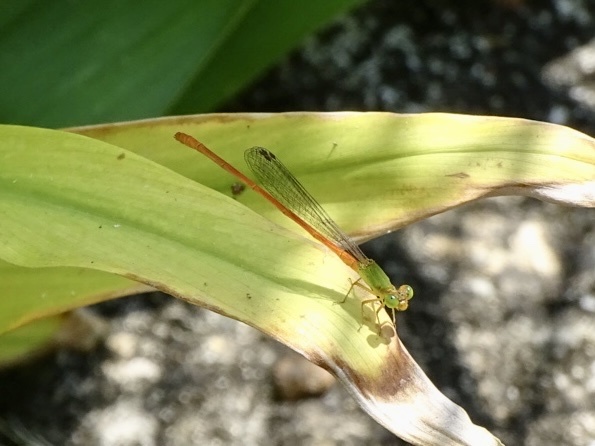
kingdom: Animalia
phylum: Arthropoda
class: Insecta
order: Odonata
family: Coenagrionidae
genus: Ceriagrion
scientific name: Ceriagrion auranticum
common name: Orange-tailed sprite
